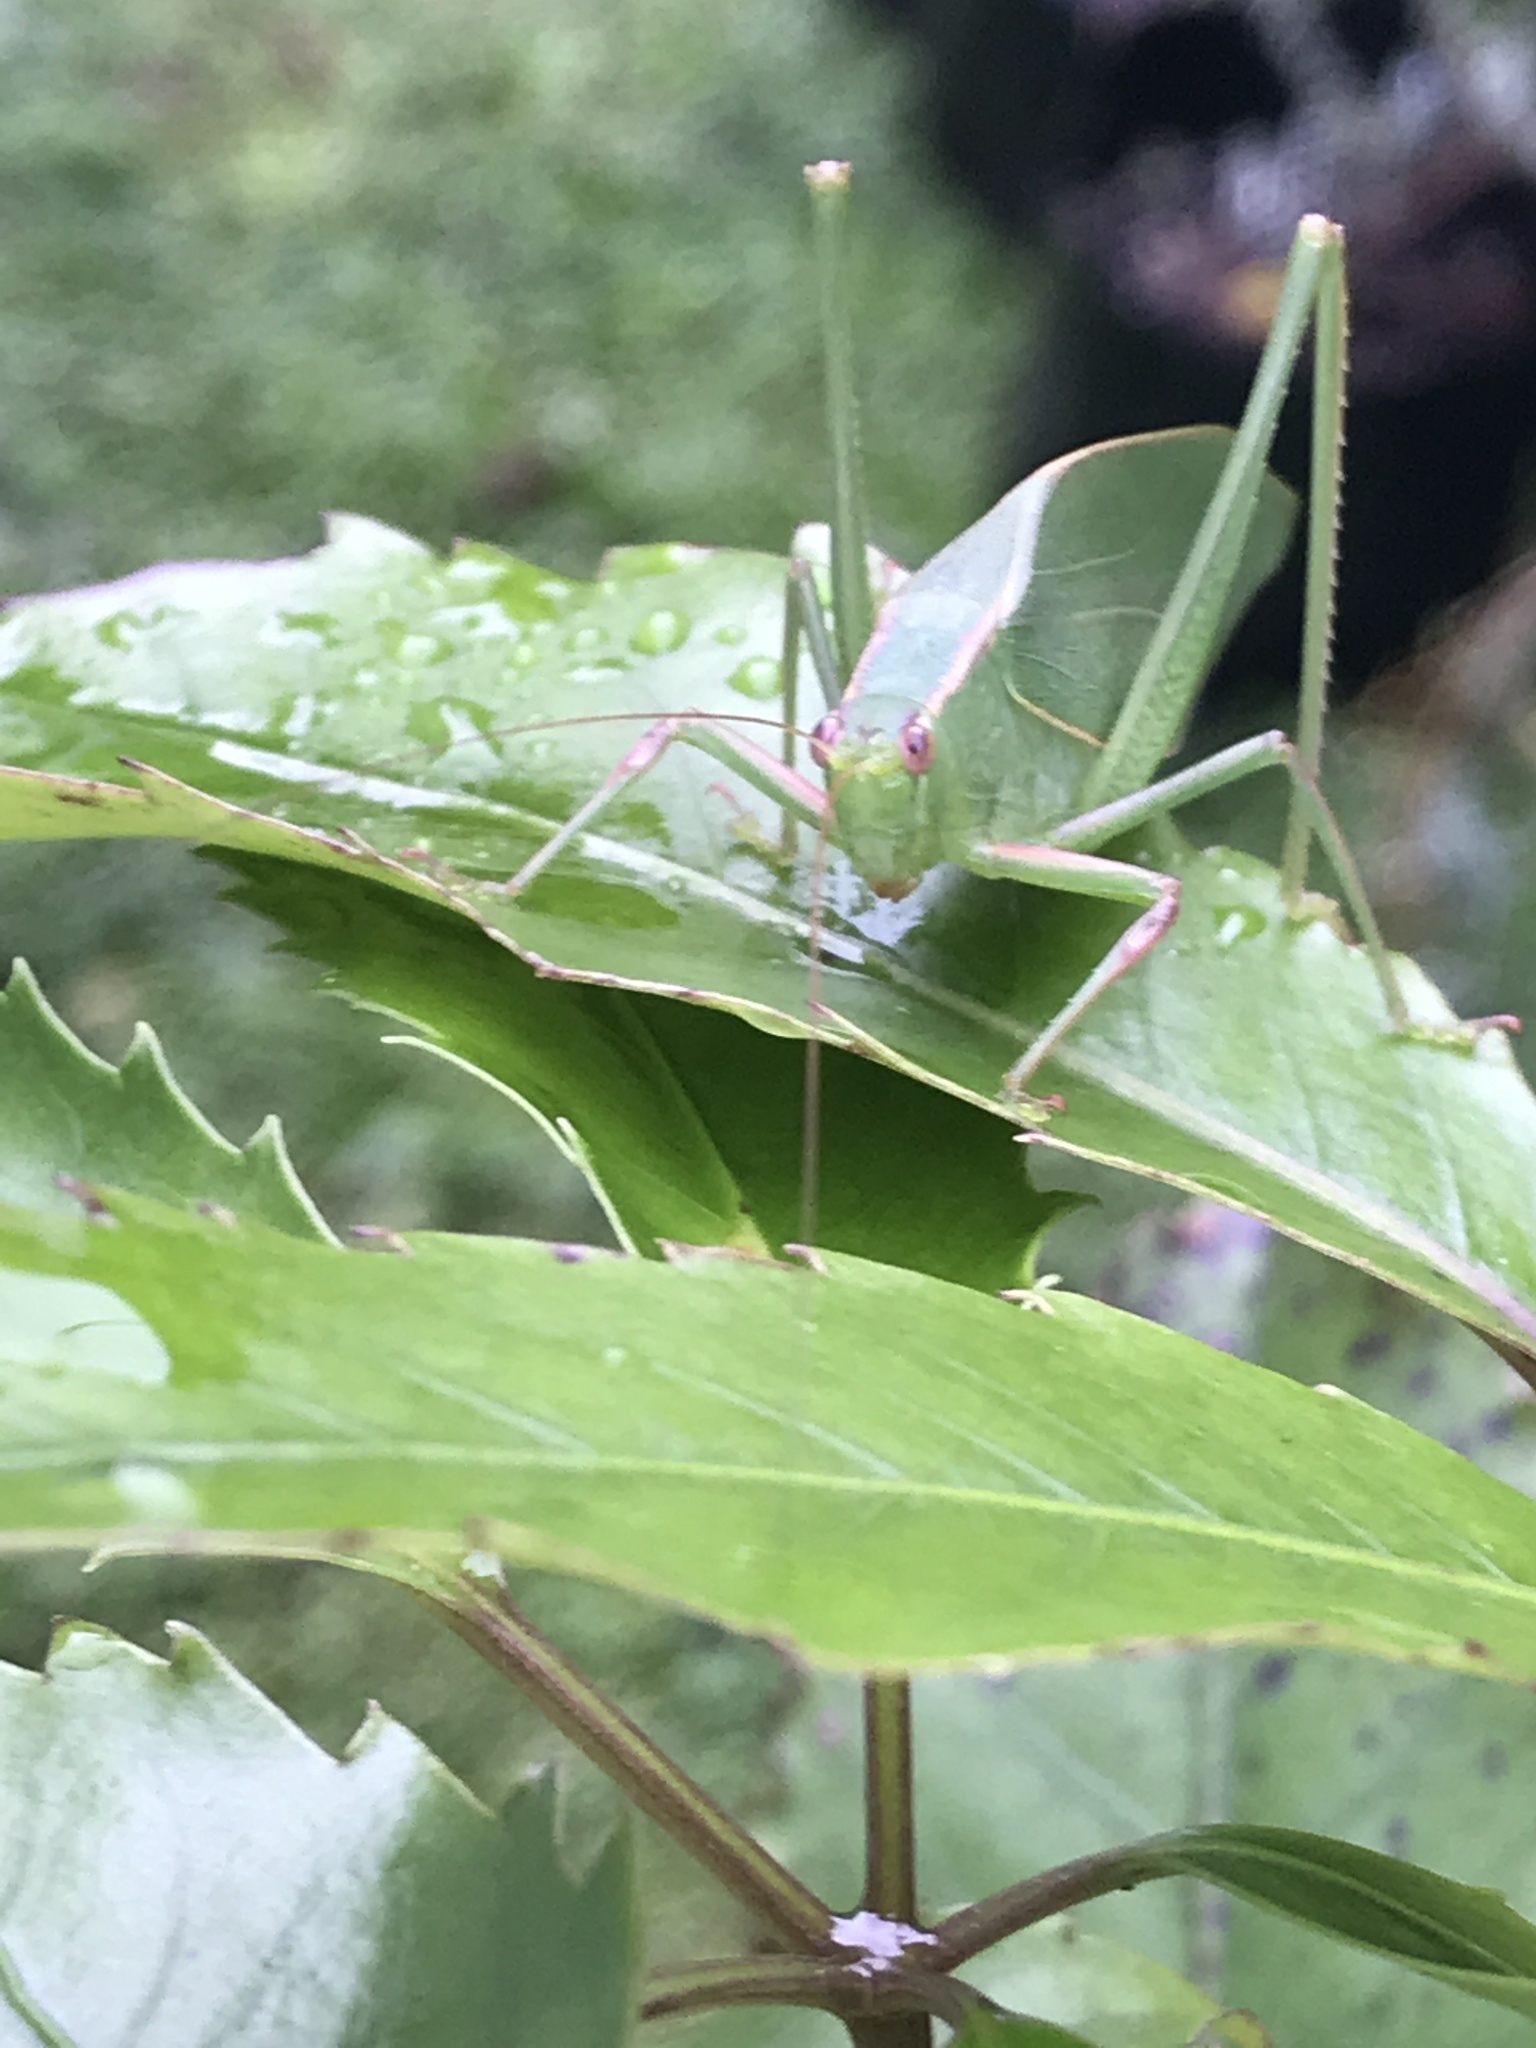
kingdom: Animalia
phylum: Arthropoda
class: Insecta
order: Orthoptera
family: Tettigoniidae
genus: Caedicia
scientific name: Caedicia simplex
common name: Common garden katydid
